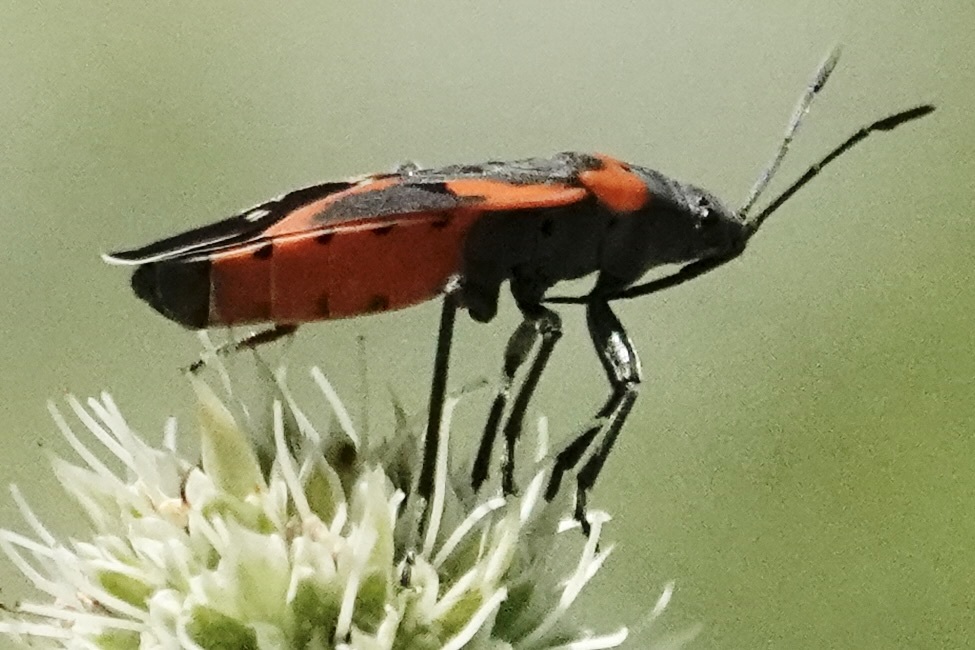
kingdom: Animalia
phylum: Arthropoda
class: Insecta
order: Hemiptera
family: Lygaeidae
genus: Lygaeus
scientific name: Lygaeus kalmii
